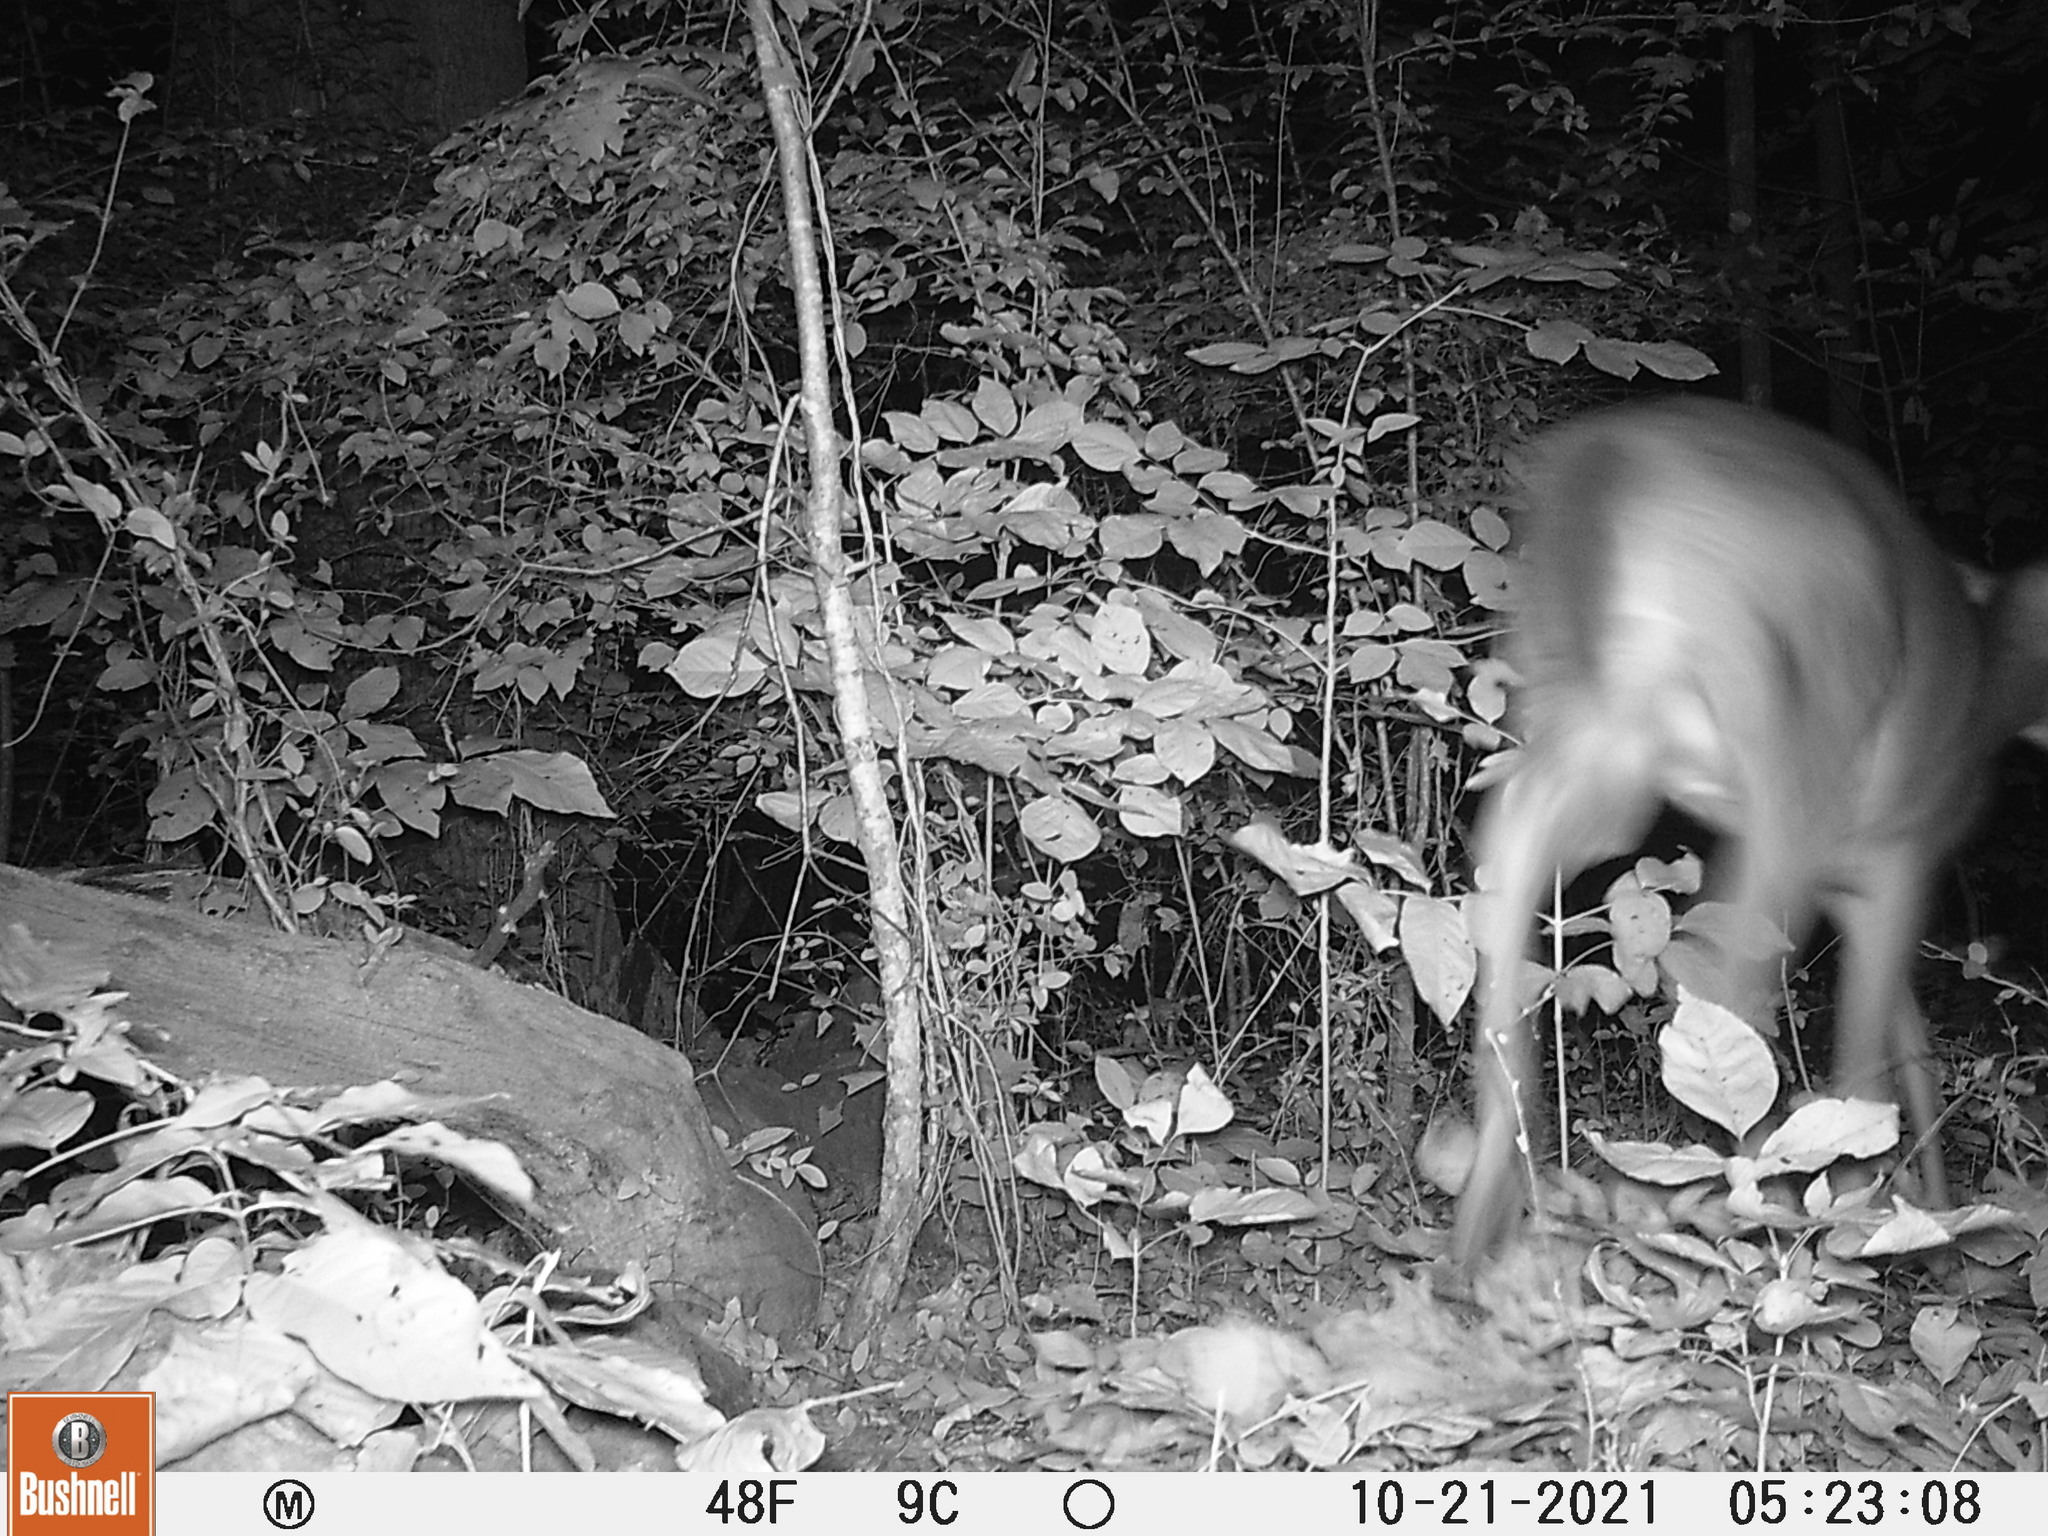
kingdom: Animalia
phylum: Chordata
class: Mammalia
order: Artiodactyla
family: Cervidae
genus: Odocoileus
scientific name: Odocoileus virginianus
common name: White-tailed deer
